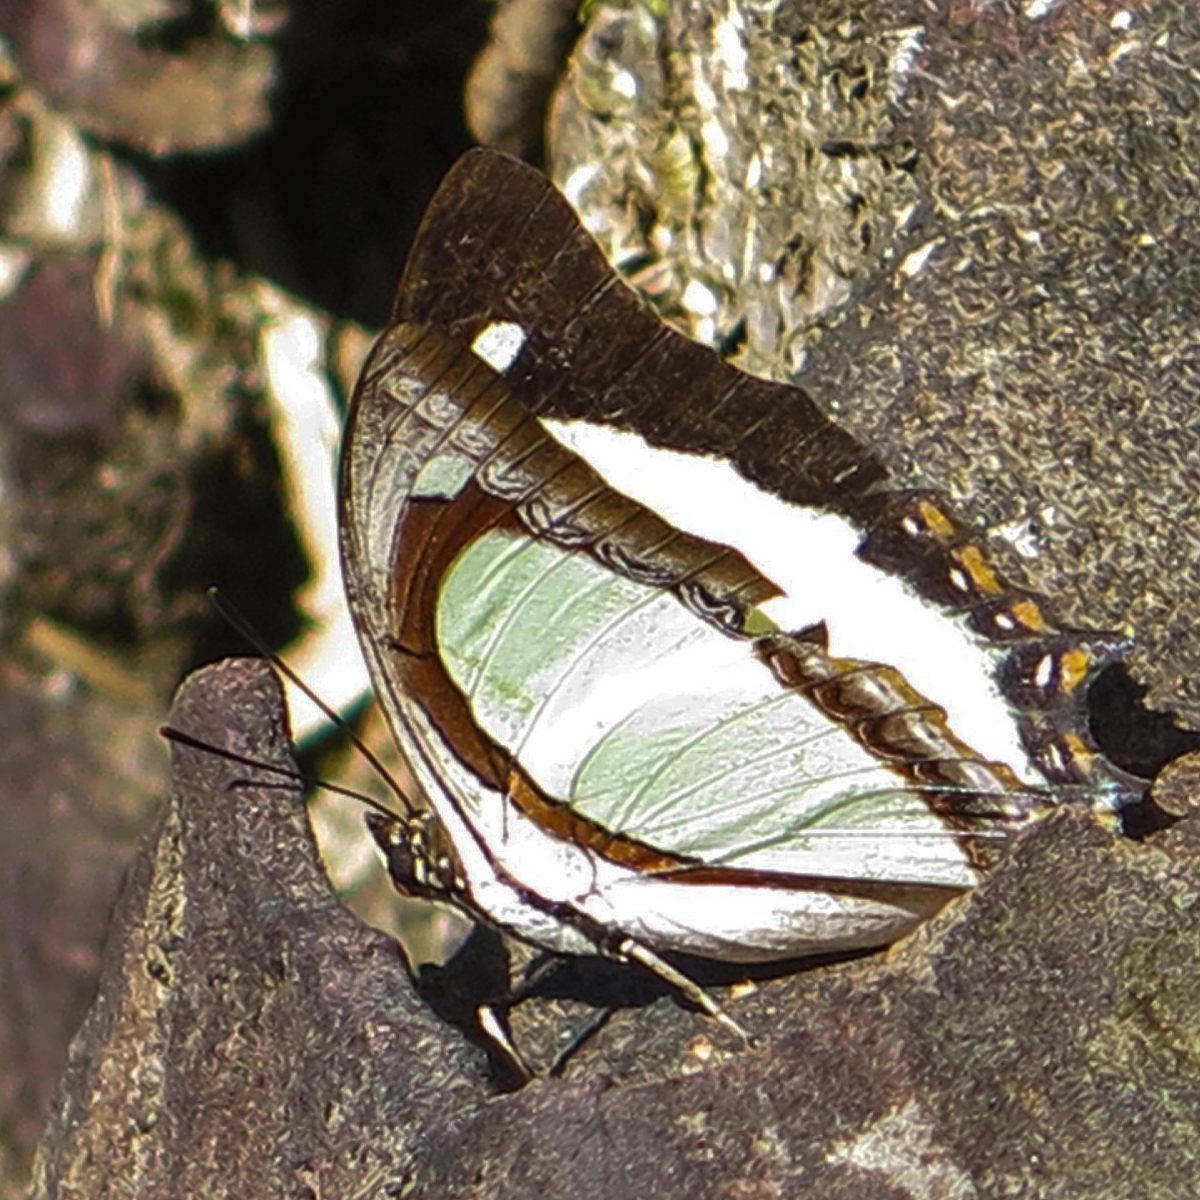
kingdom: Animalia
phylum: Arthropoda
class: Insecta
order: Lepidoptera
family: Nymphalidae
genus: Polyura
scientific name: Polyura jalysus
